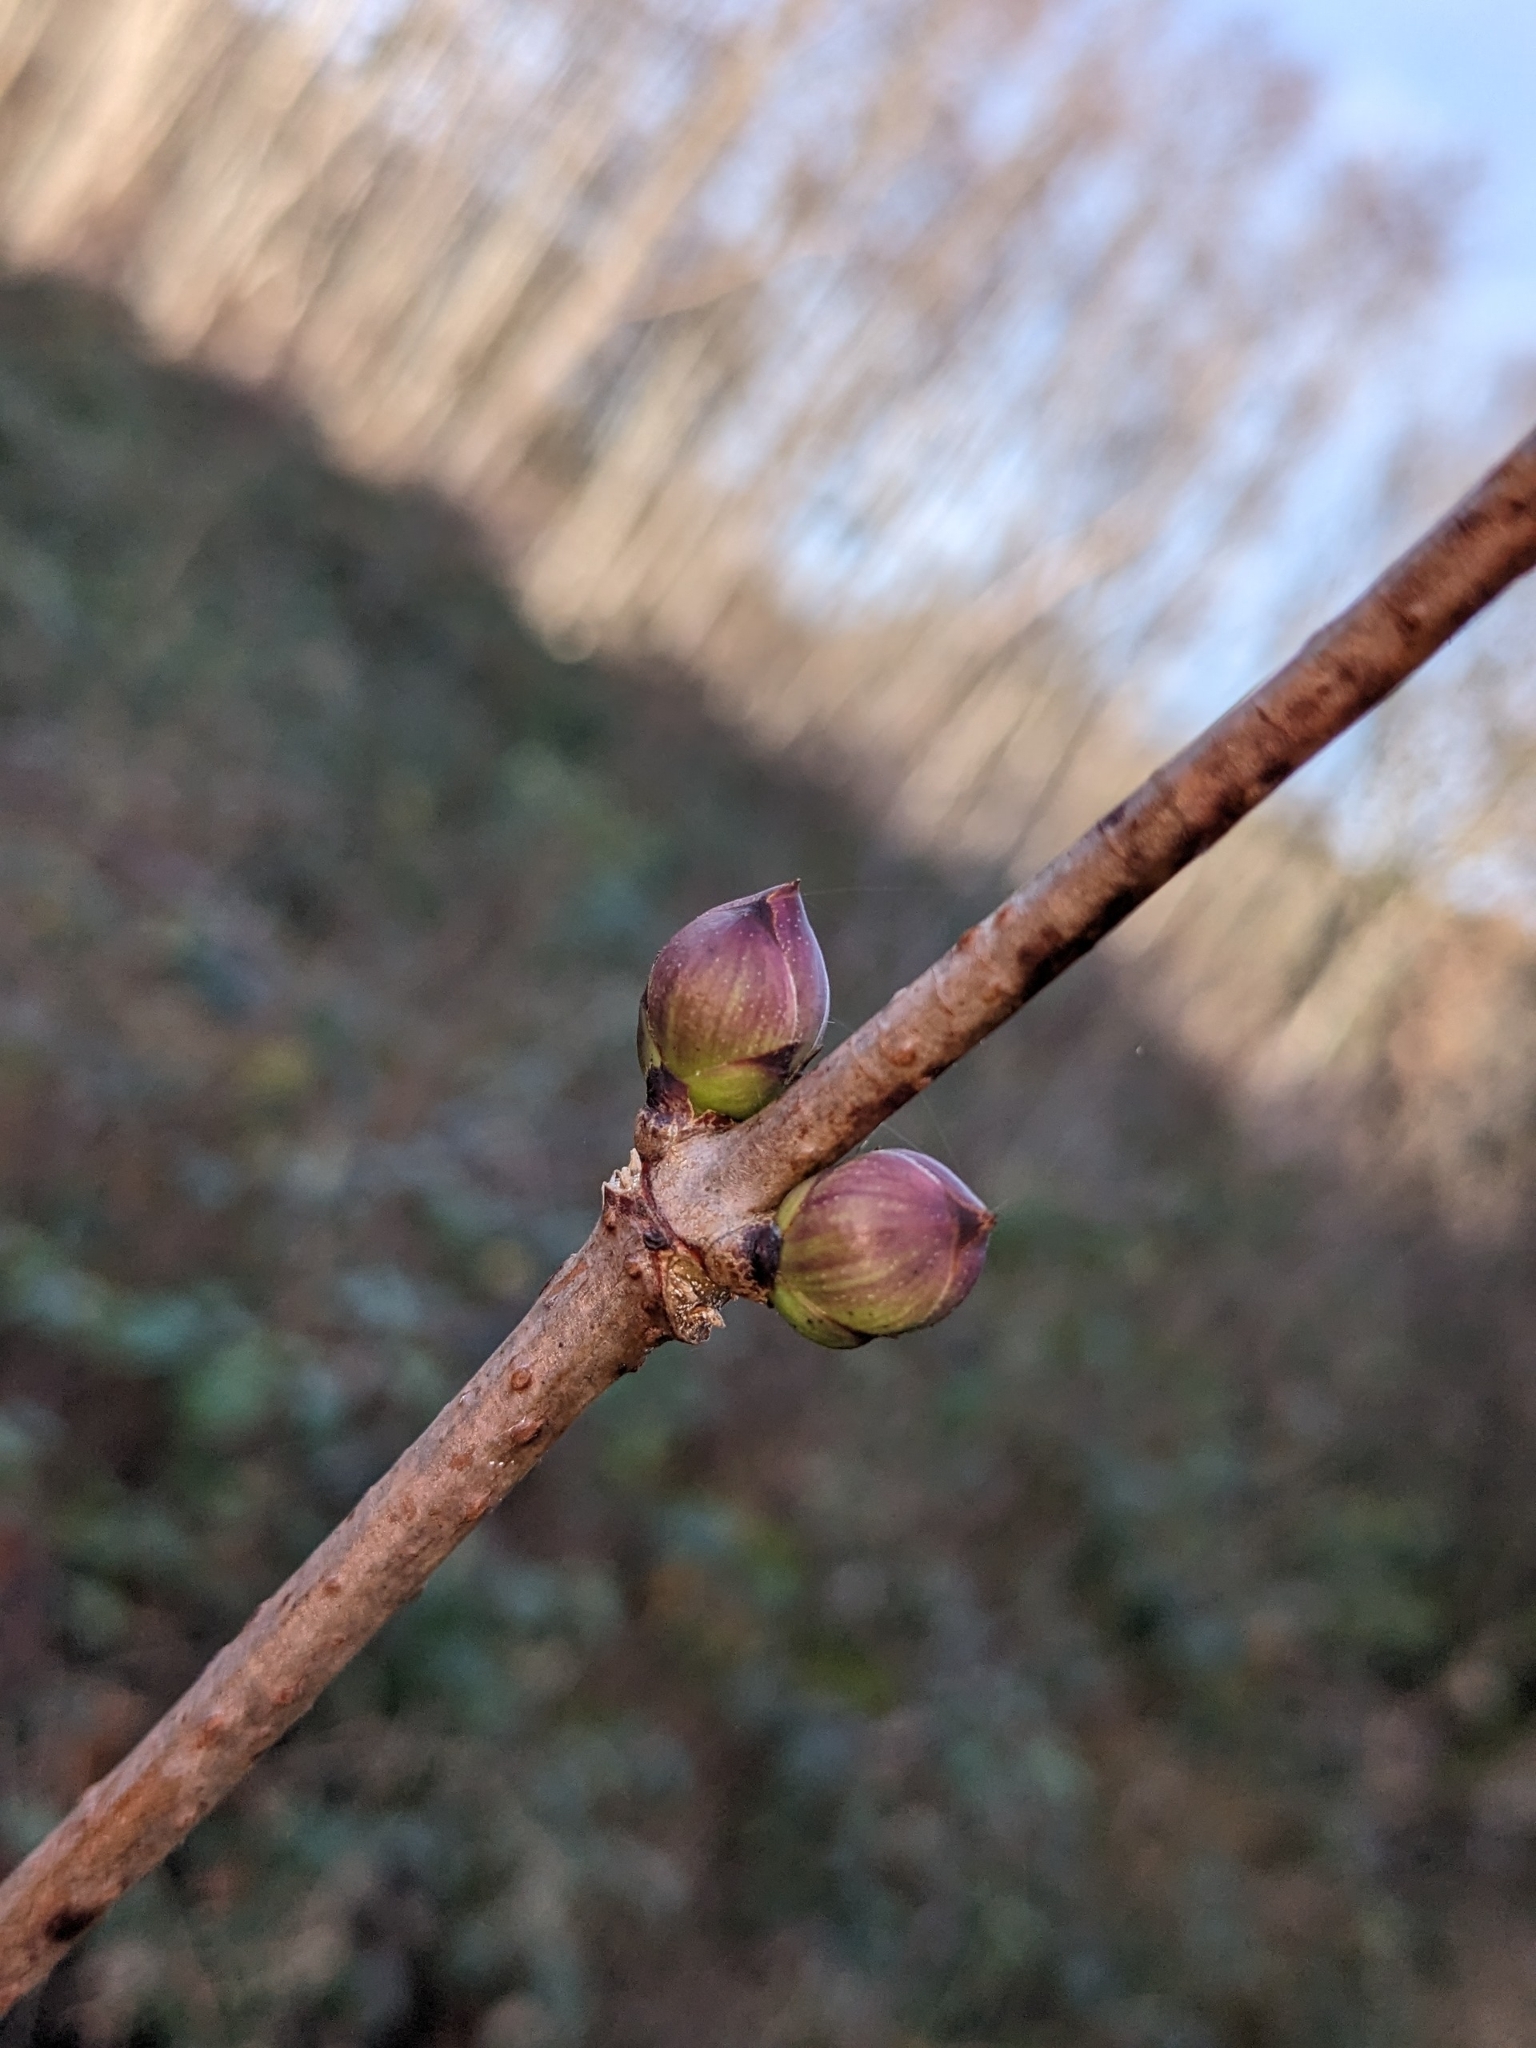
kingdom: Plantae
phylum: Tracheophyta
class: Magnoliopsida
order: Dipsacales
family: Viburnaceae
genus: Sambucus
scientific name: Sambucus racemosa
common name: Red-berried elder
